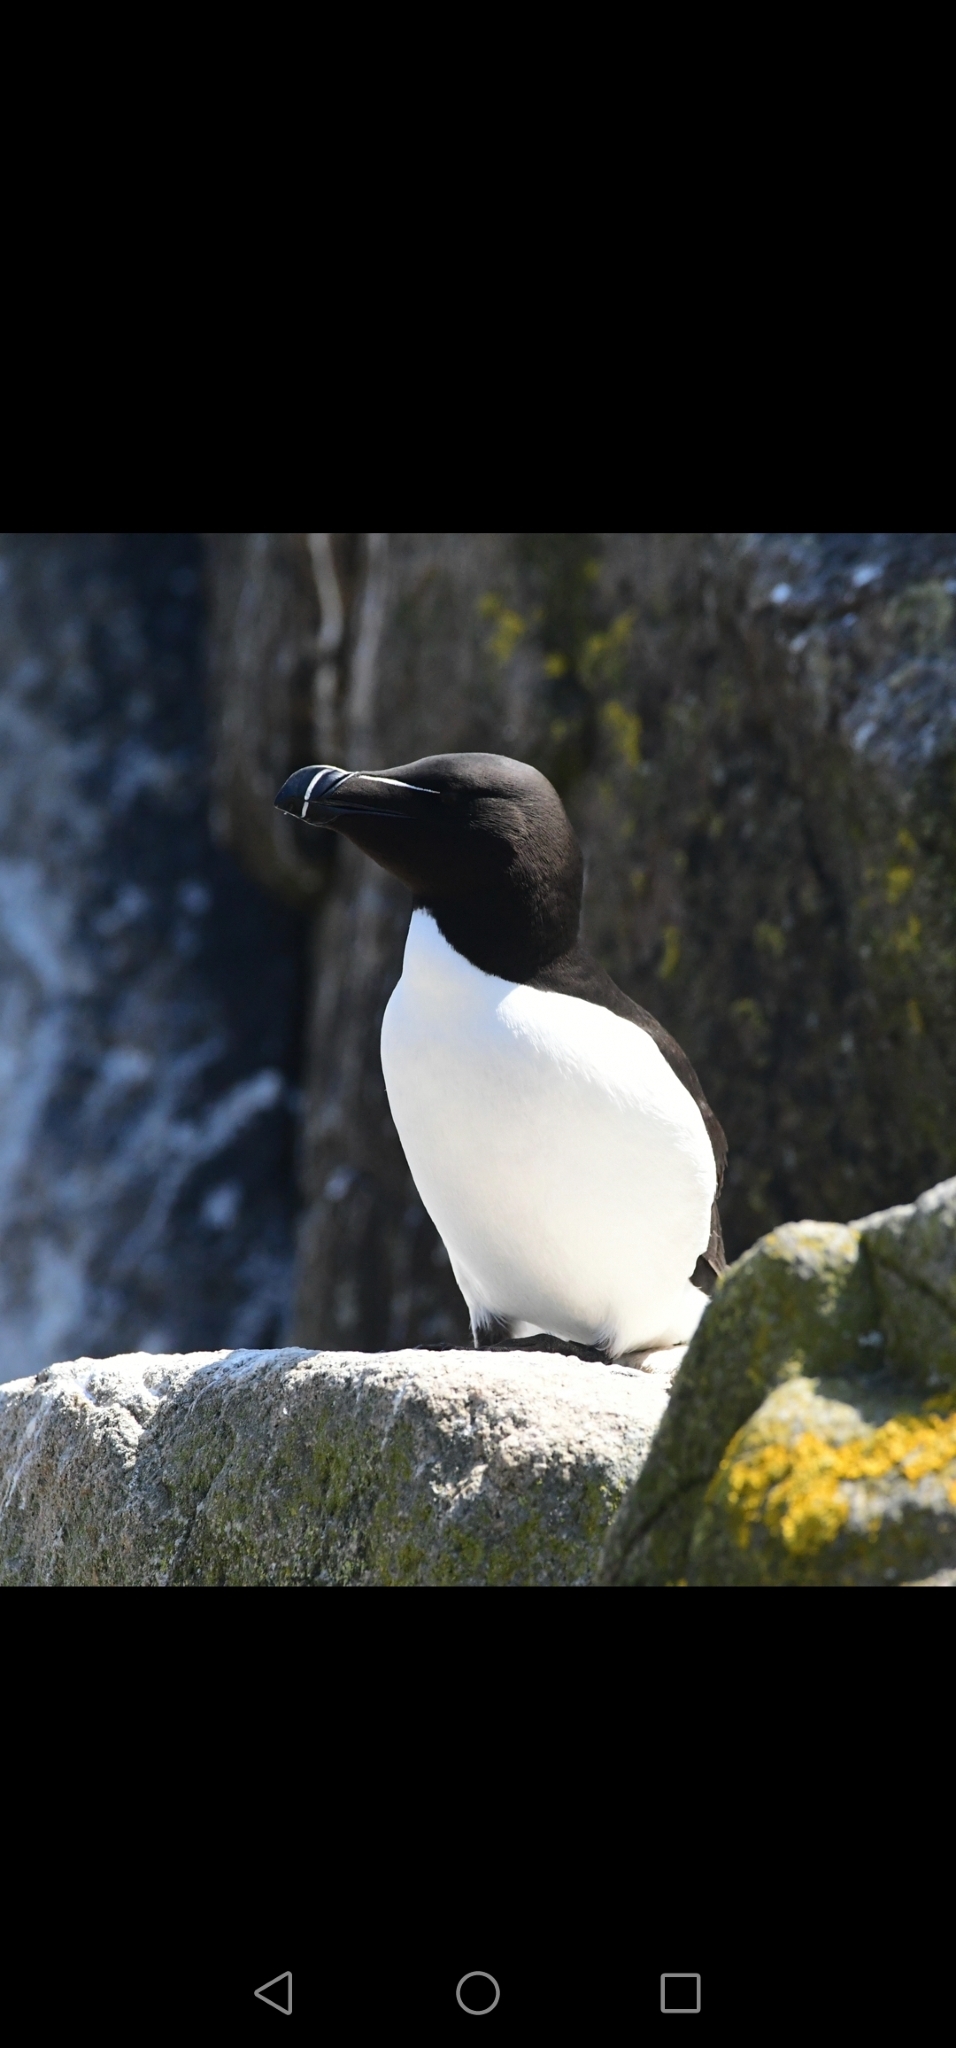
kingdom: Animalia
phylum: Chordata
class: Aves
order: Charadriiformes
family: Alcidae
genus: Alca
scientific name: Alca torda
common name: Razorbill
